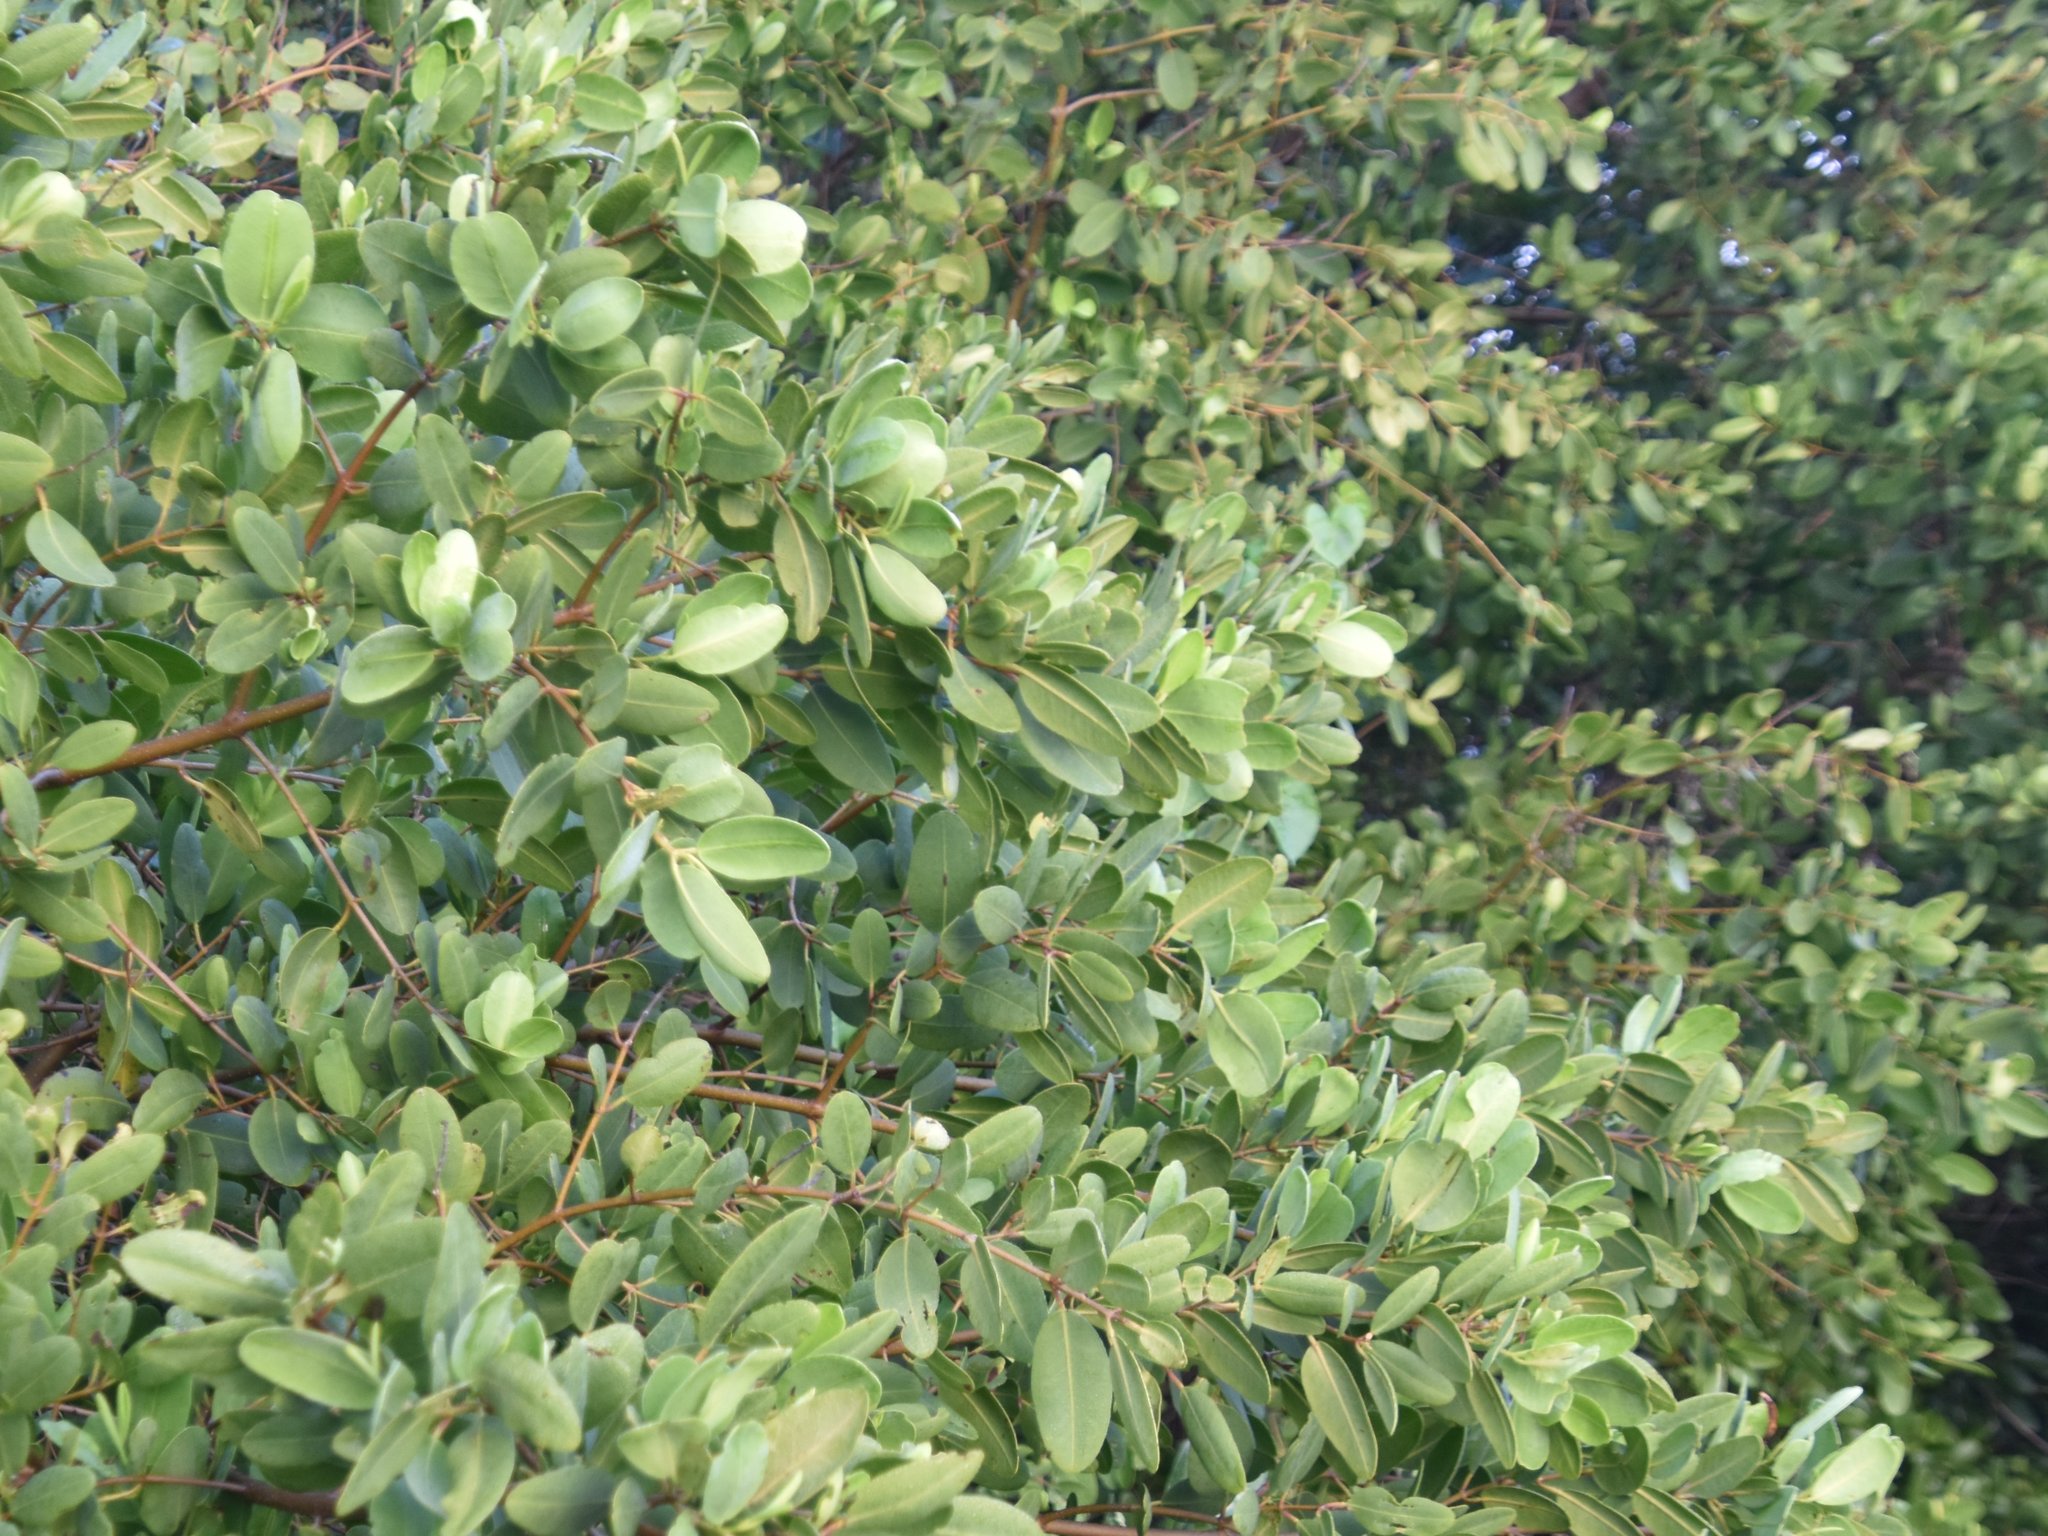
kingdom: Plantae
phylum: Tracheophyta
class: Magnoliopsida
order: Myrtales
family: Combretaceae
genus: Laguncularia
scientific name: Laguncularia racemosa
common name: White mangrove
